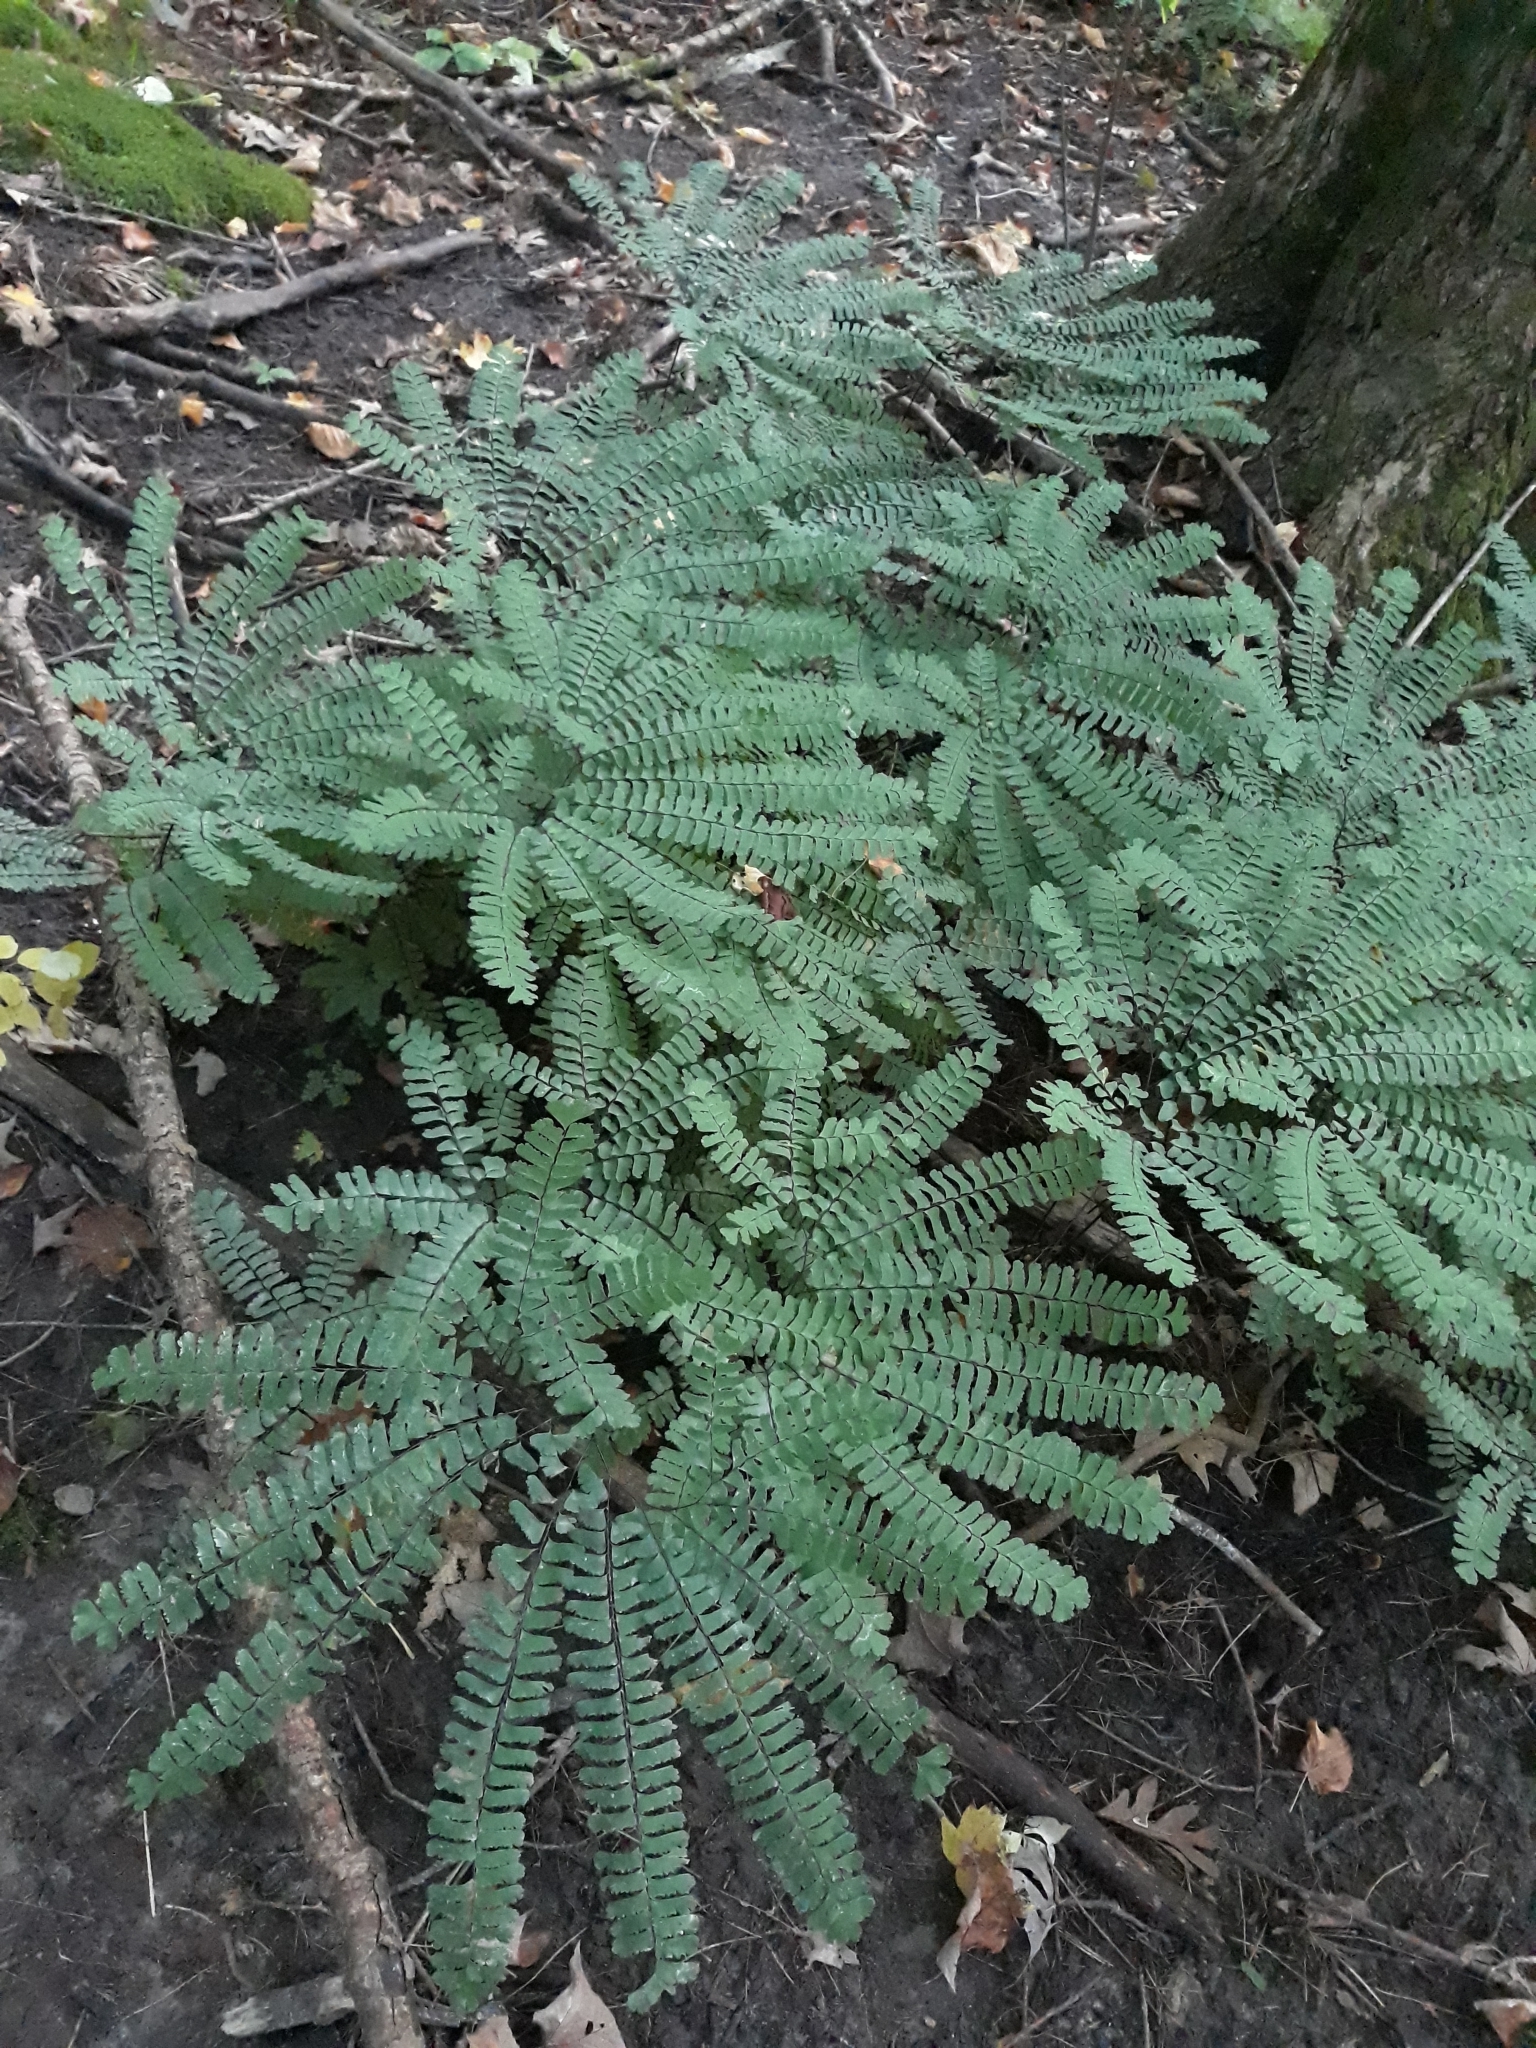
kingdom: Plantae
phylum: Tracheophyta
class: Polypodiopsida
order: Polypodiales
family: Pteridaceae
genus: Adiantum
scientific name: Adiantum pedatum
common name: Five-finger fern
